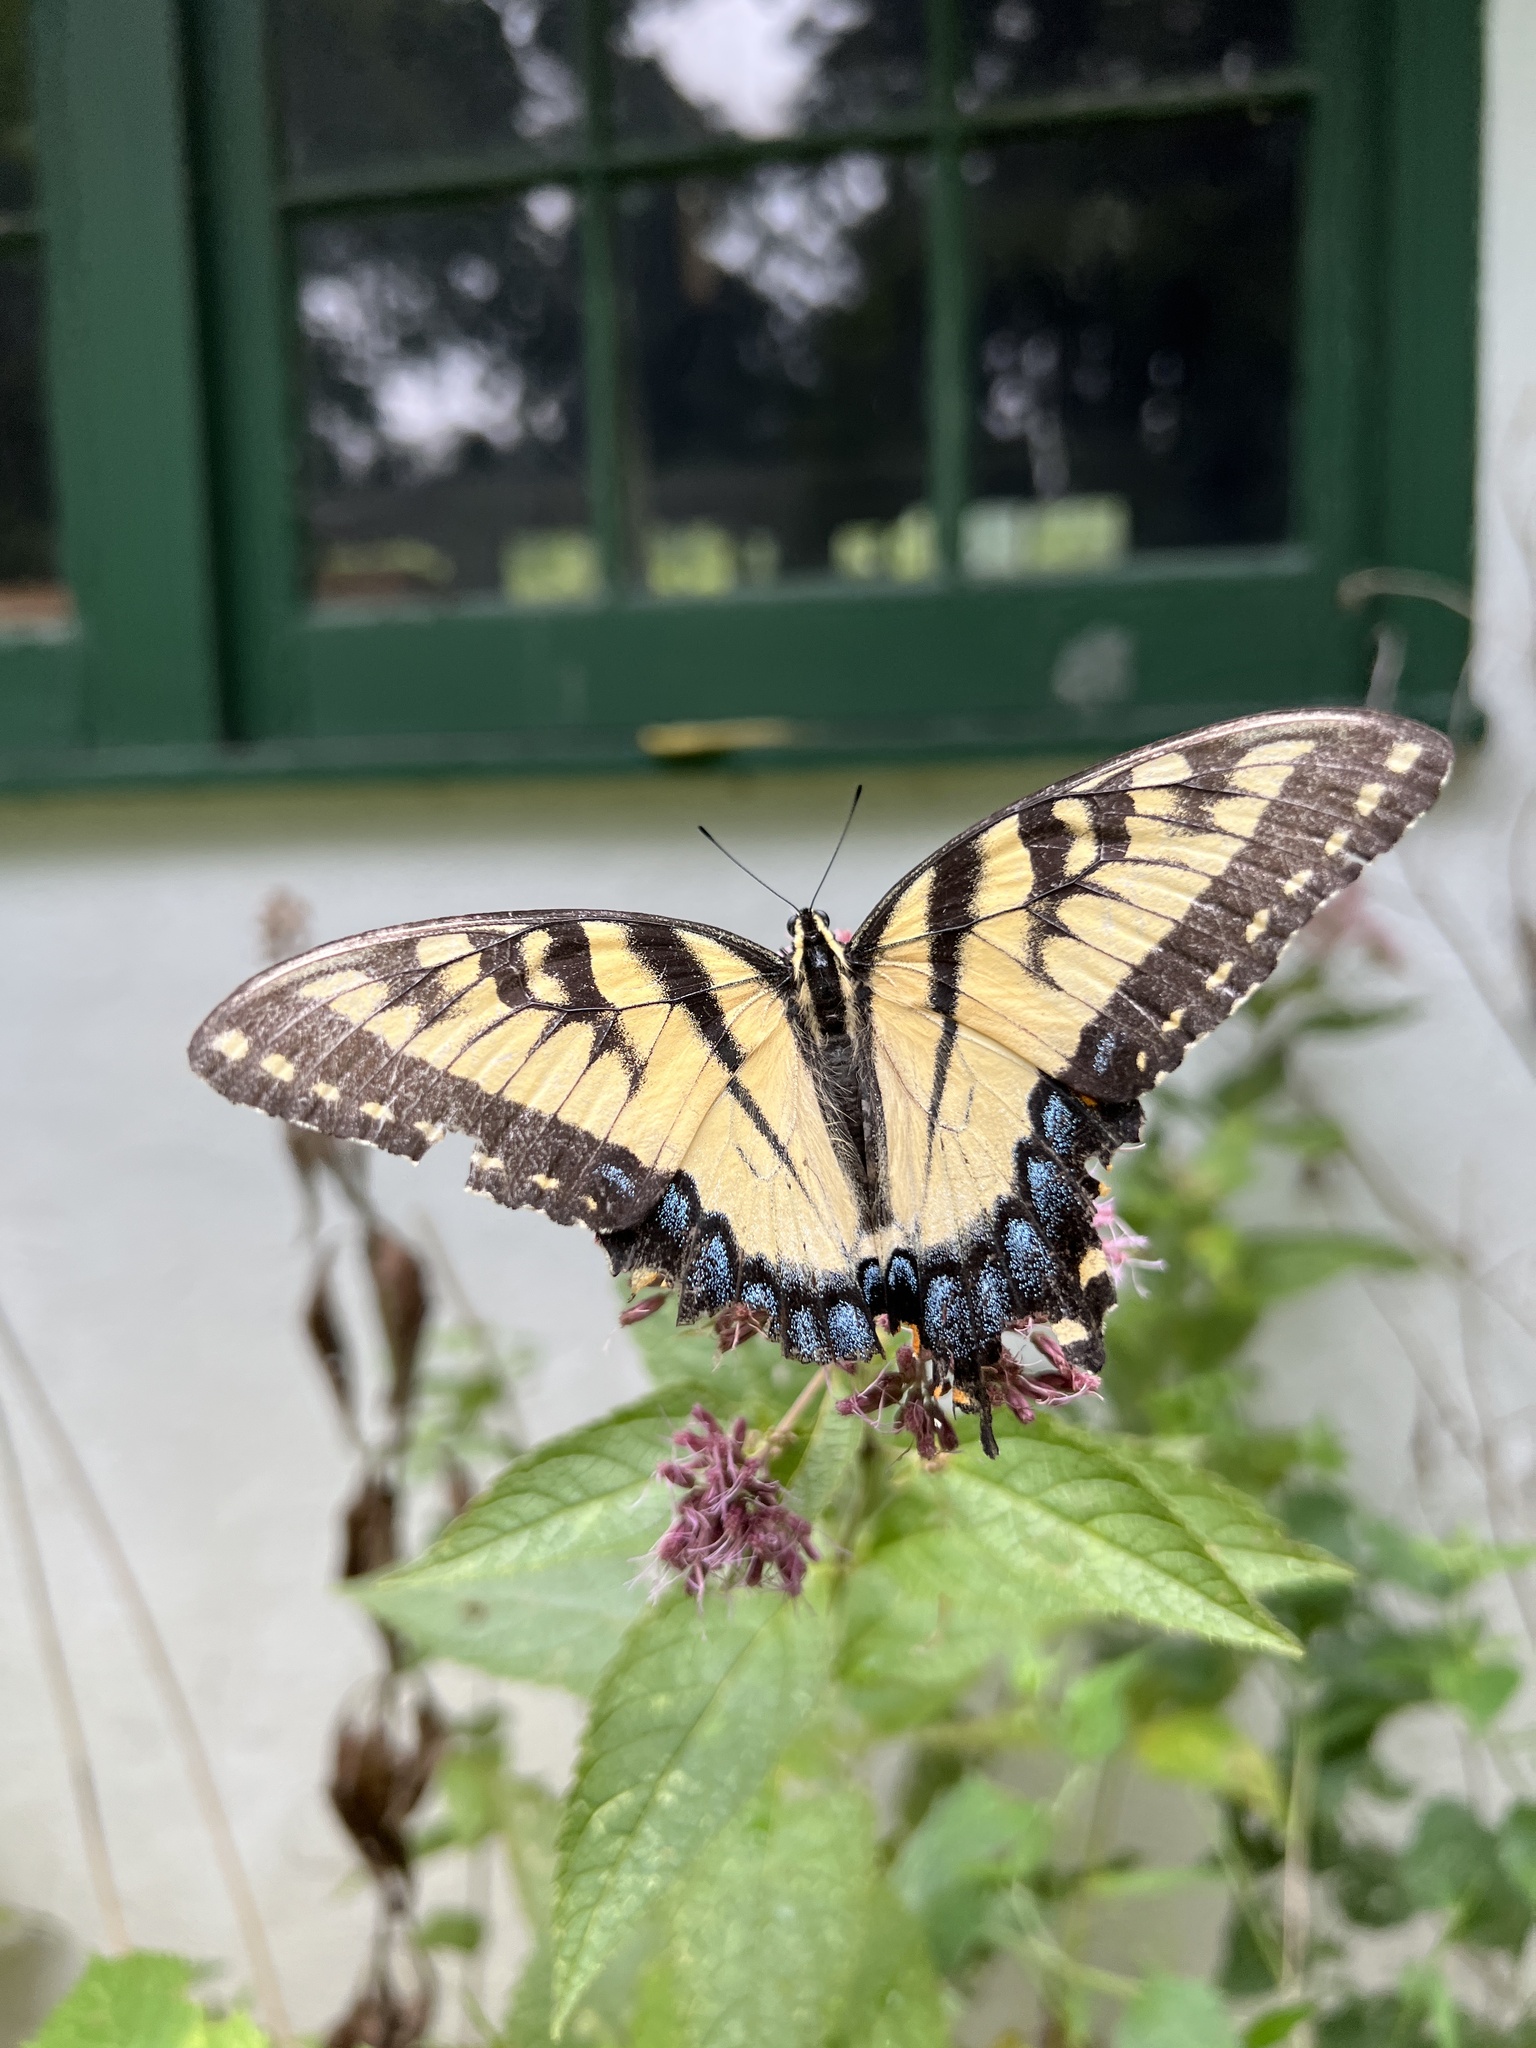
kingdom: Animalia
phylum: Arthropoda
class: Insecta
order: Lepidoptera
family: Papilionidae
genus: Papilio
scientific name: Papilio glaucus
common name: Tiger swallowtail
